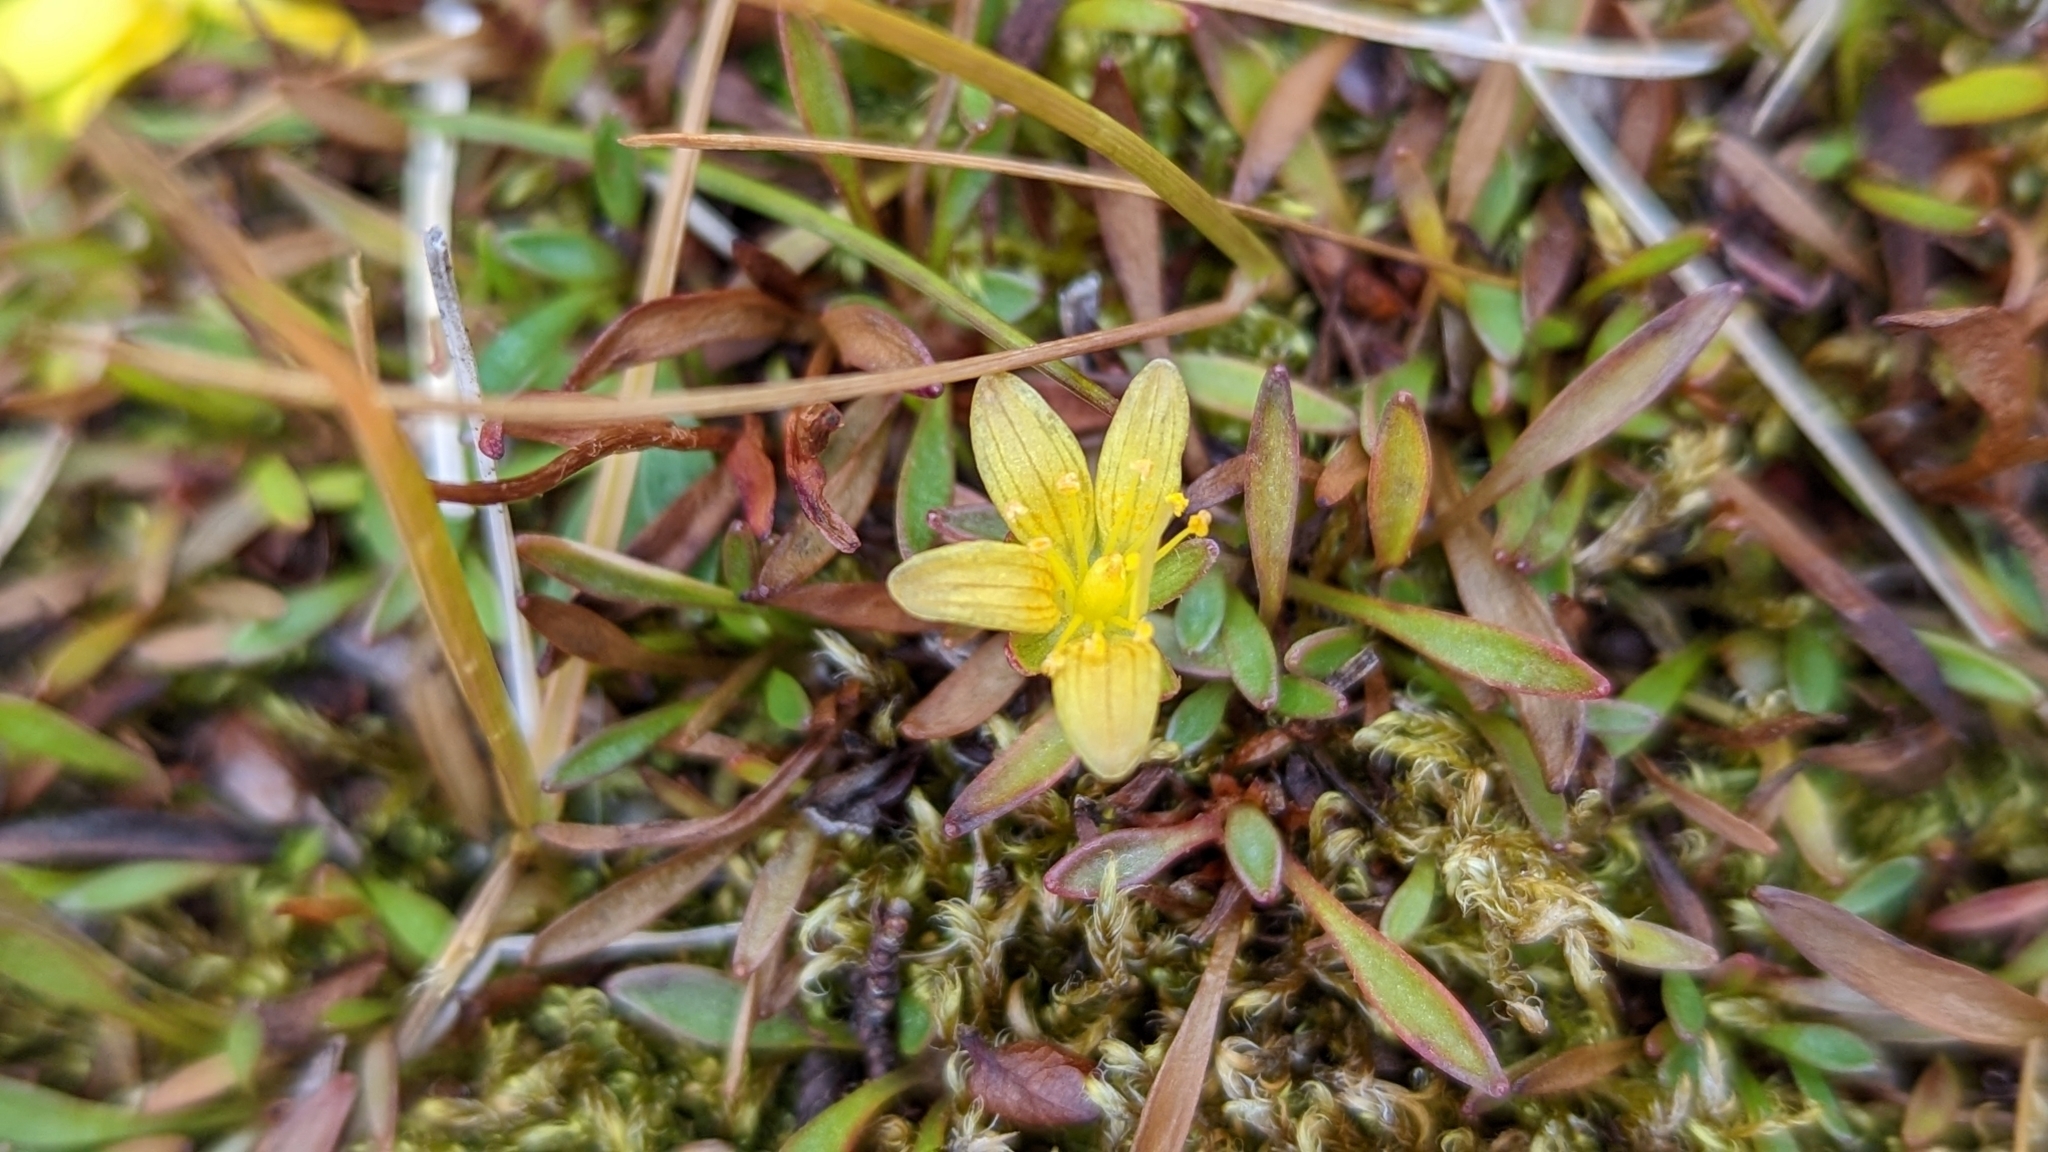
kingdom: Plantae
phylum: Tracheophyta
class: Magnoliopsida
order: Saxifragales
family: Saxifragaceae
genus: Saxifraga
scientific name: Saxifraga hirculus
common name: Yellow marsh saxifrage
